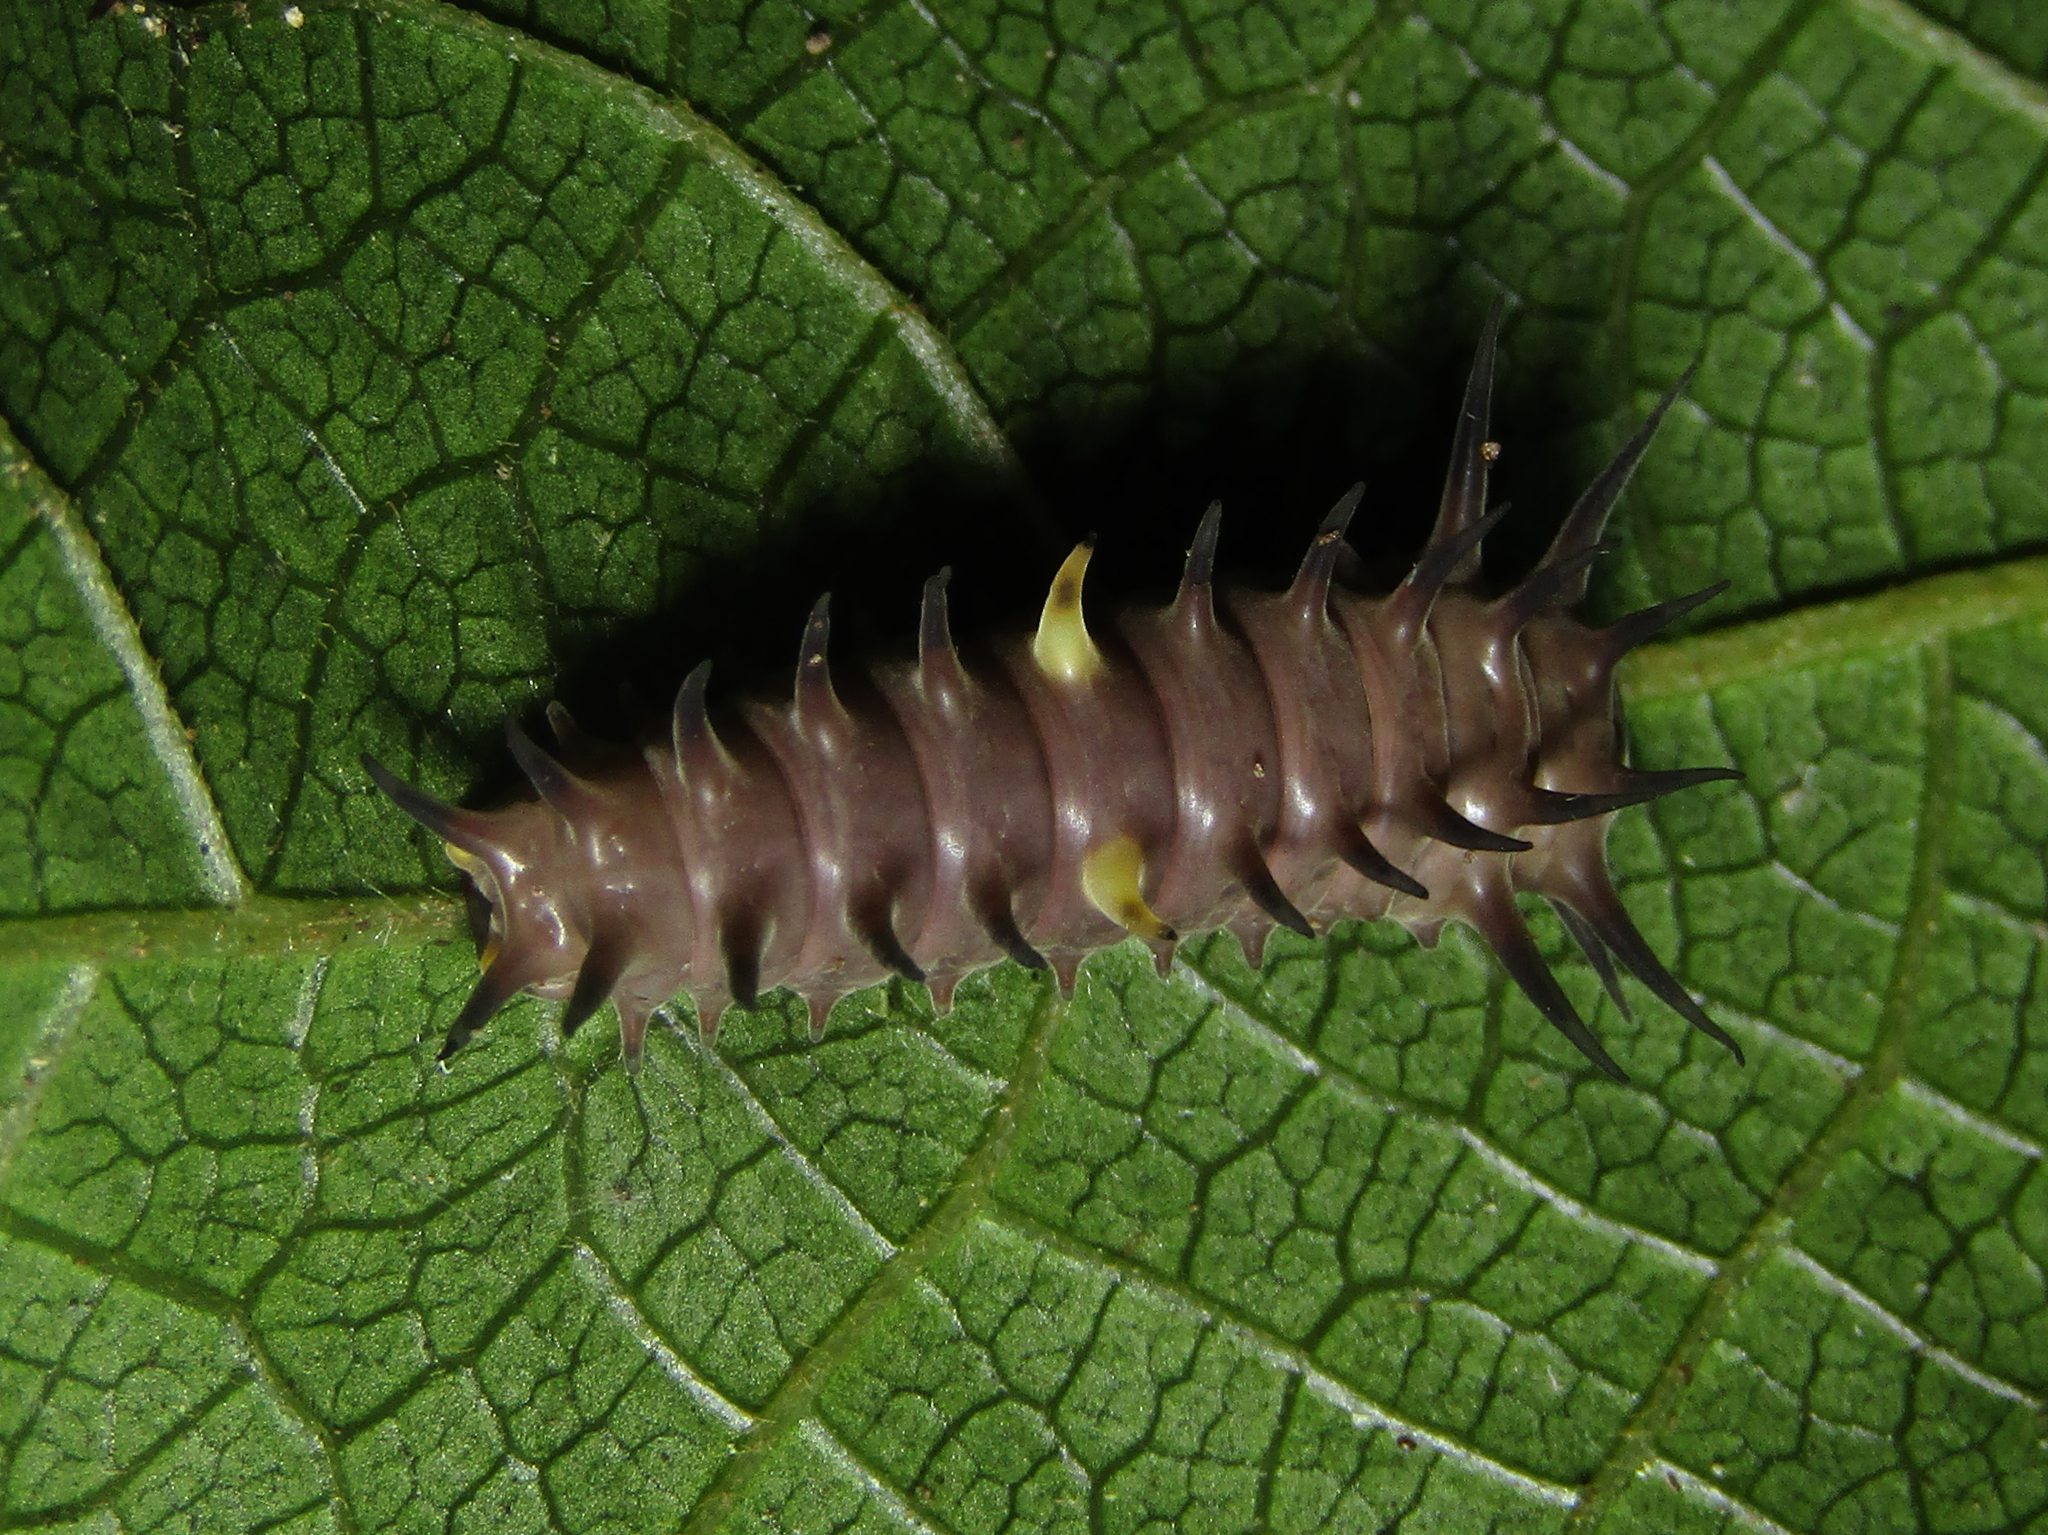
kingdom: Animalia
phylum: Arthropoda
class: Insecta
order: Lepidoptera
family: Papilionidae
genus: Ornithoptera
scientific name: Ornithoptera richmondia
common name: Richmond birdwing
